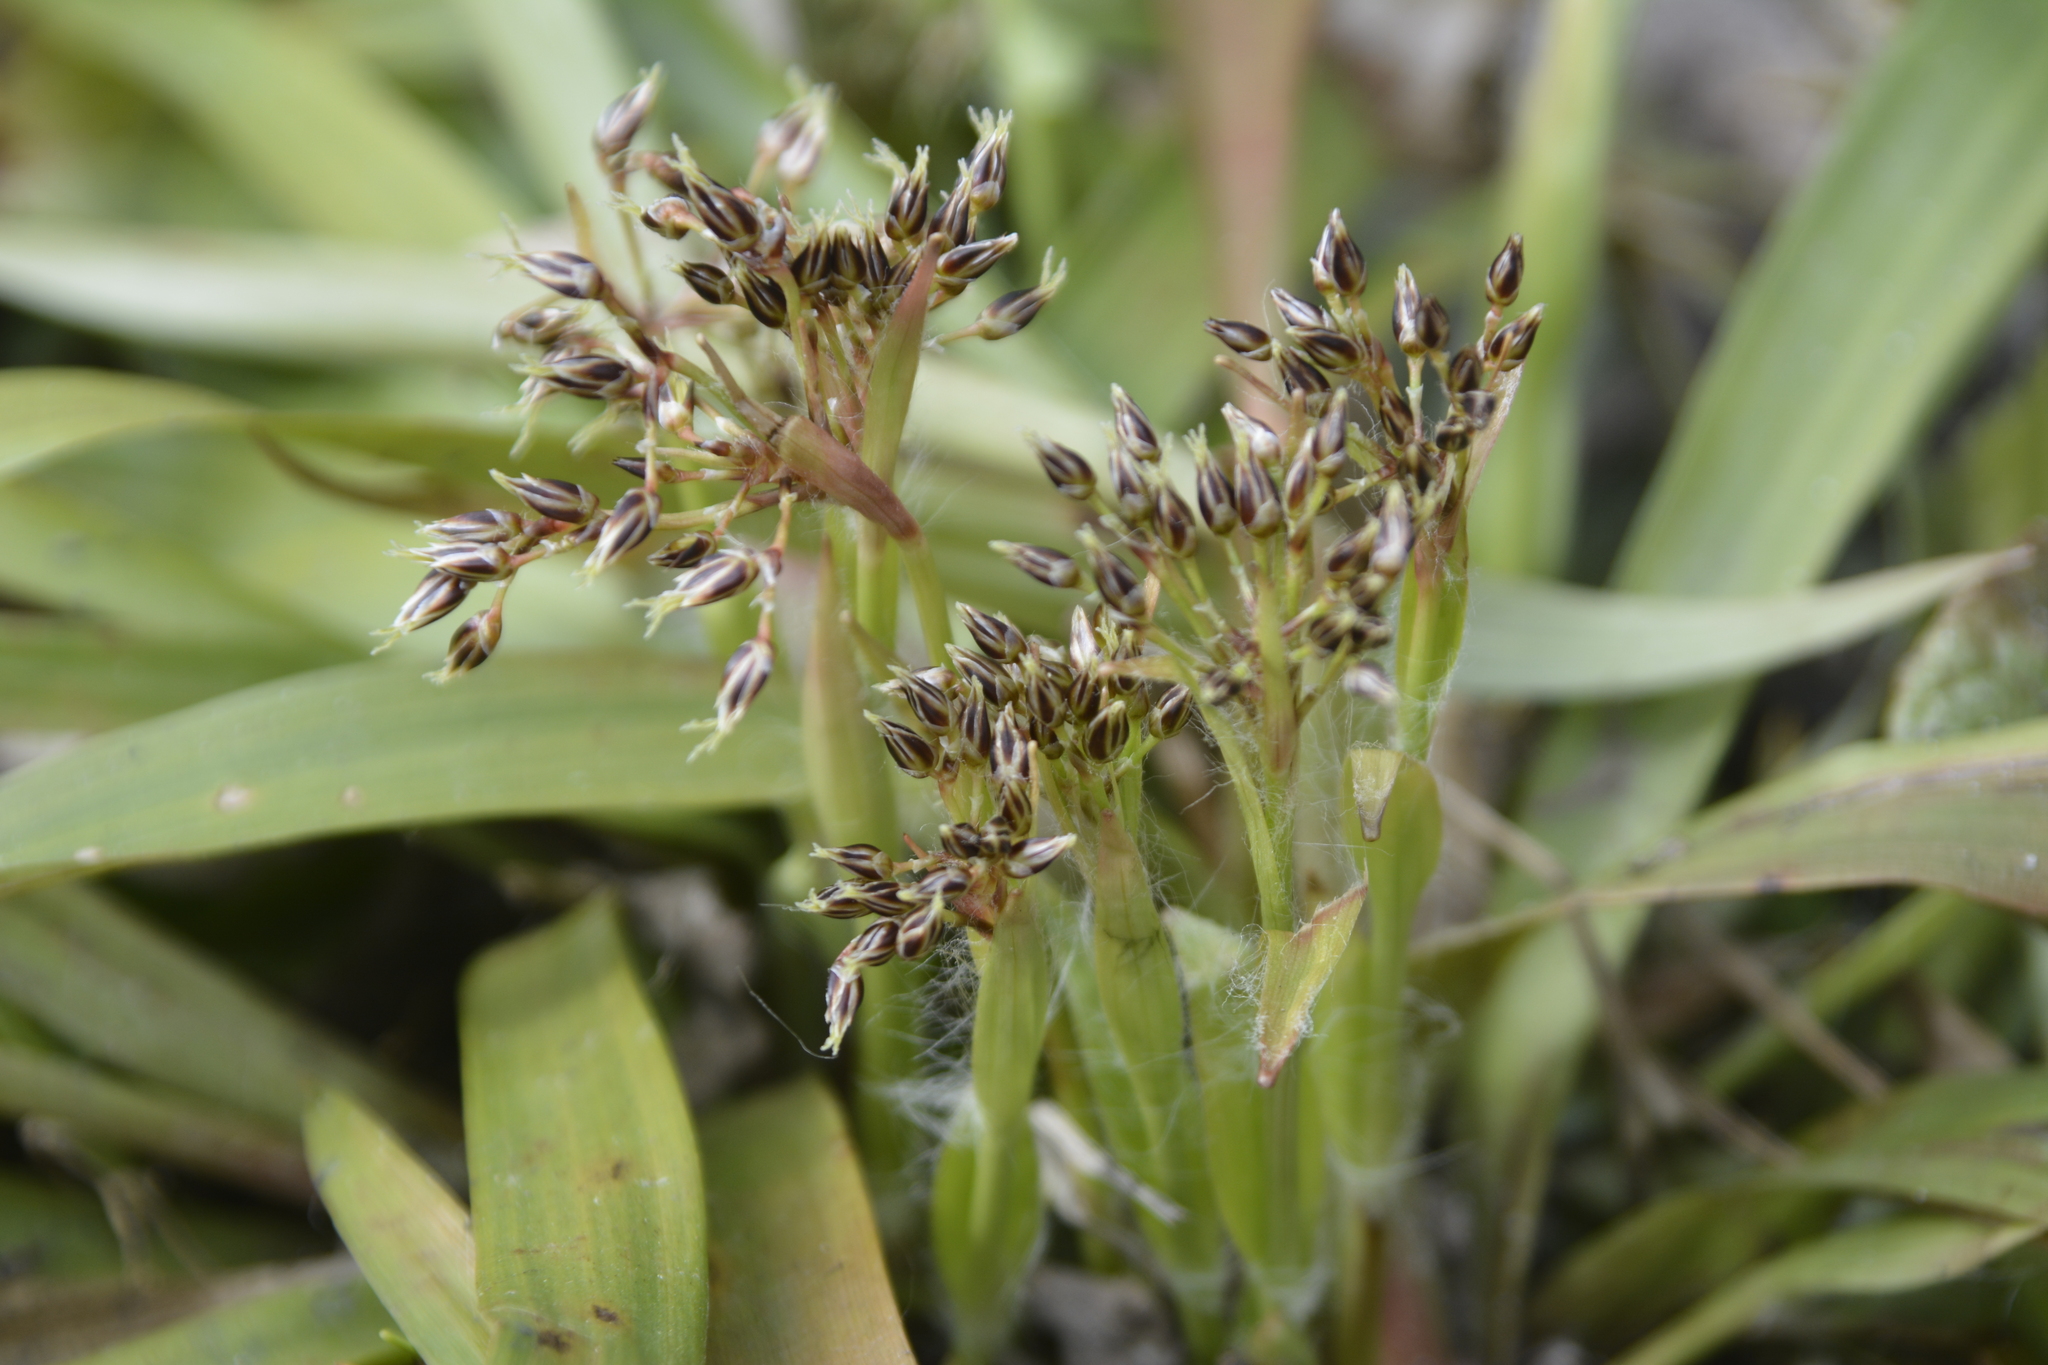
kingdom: Plantae
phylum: Tracheophyta
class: Liliopsida
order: Poales
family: Juncaceae
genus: Luzula
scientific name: Luzula pilosa
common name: Hairy wood-rush
